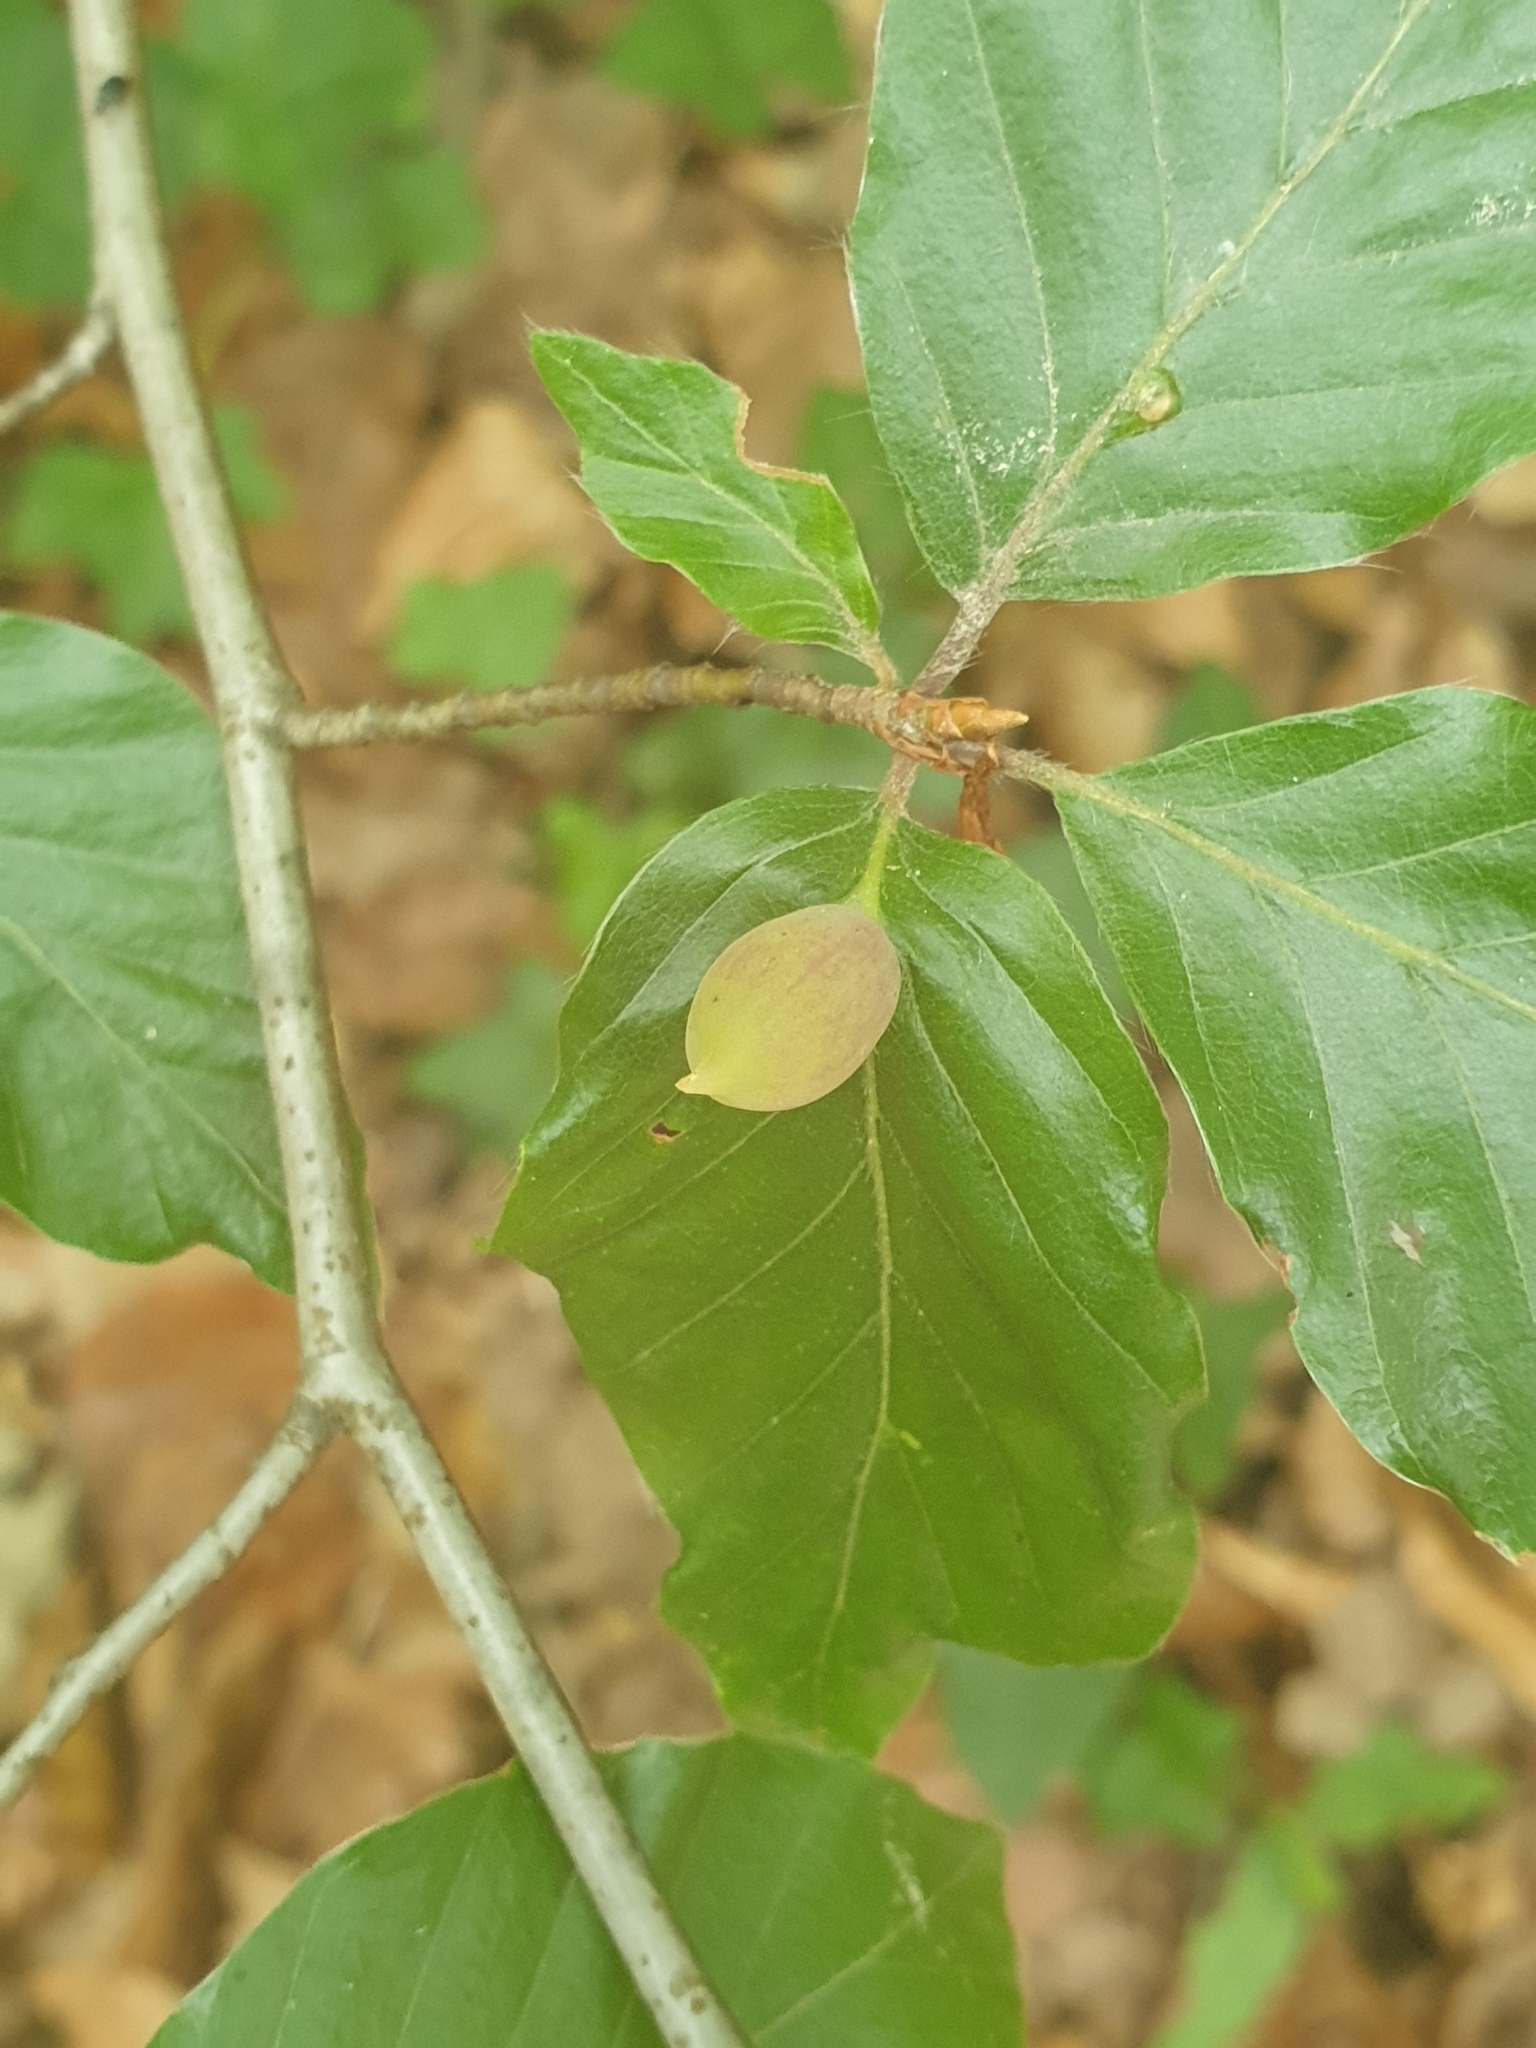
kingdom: Animalia
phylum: Arthropoda
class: Insecta
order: Diptera
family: Cecidomyiidae
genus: Mikiola
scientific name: Mikiola fagi
